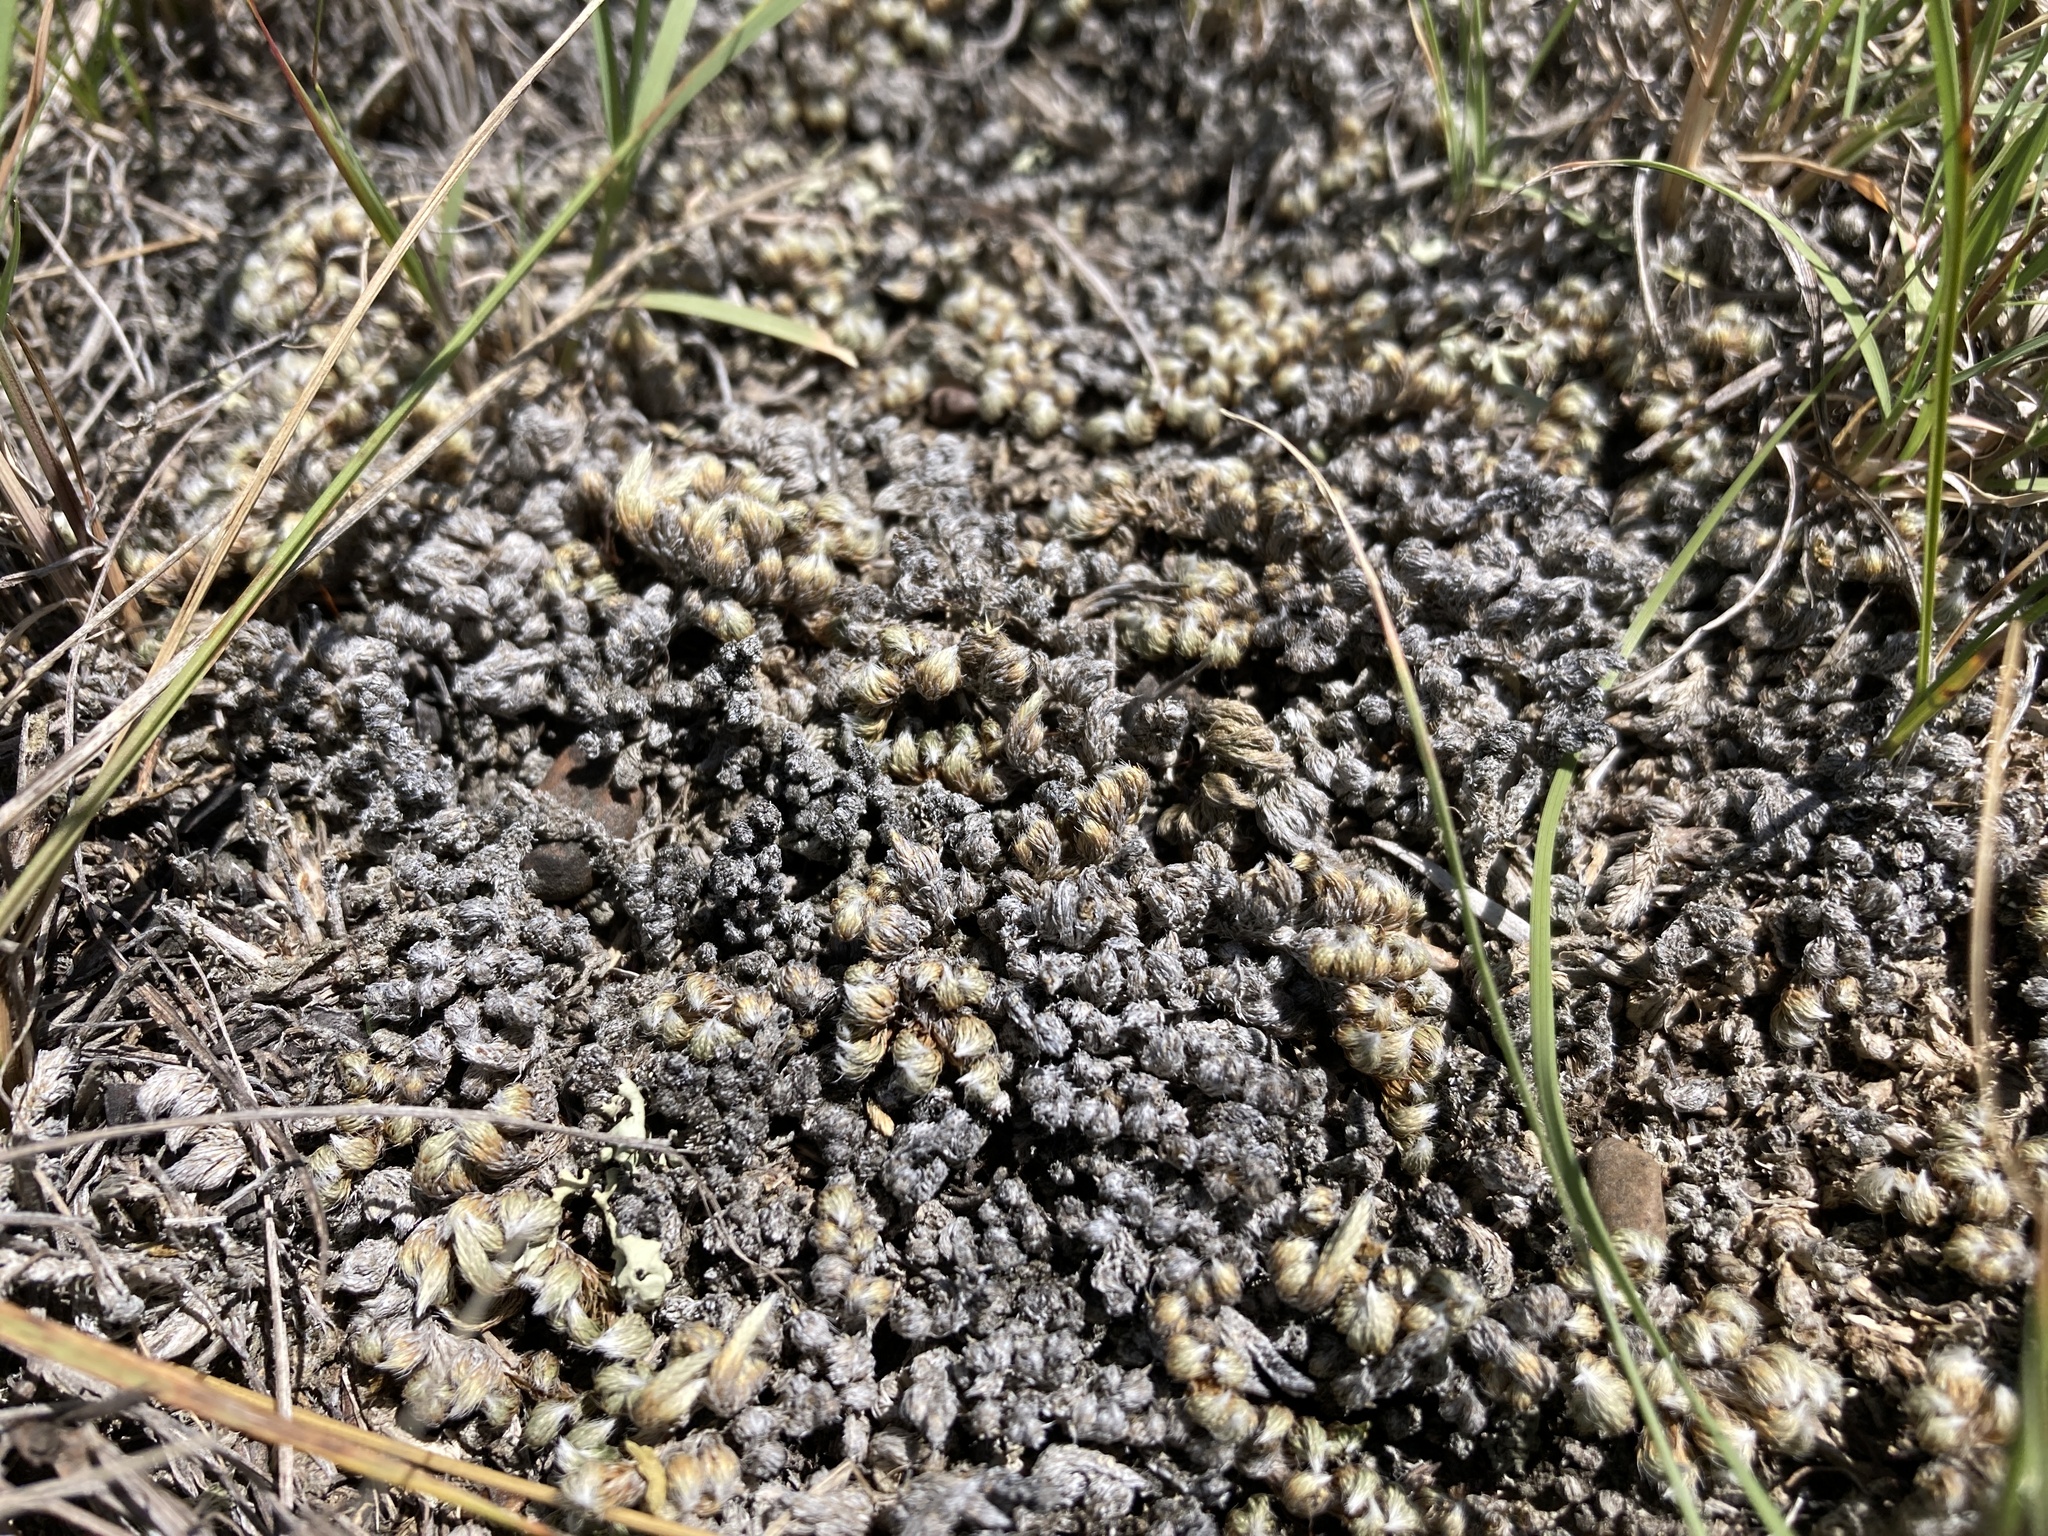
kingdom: Plantae
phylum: Tracheophyta
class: Lycopodiopsida
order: Selaginellales
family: Selaginellaceae
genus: Selaginella
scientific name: Selaginella densa
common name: Mountain spike-moss
